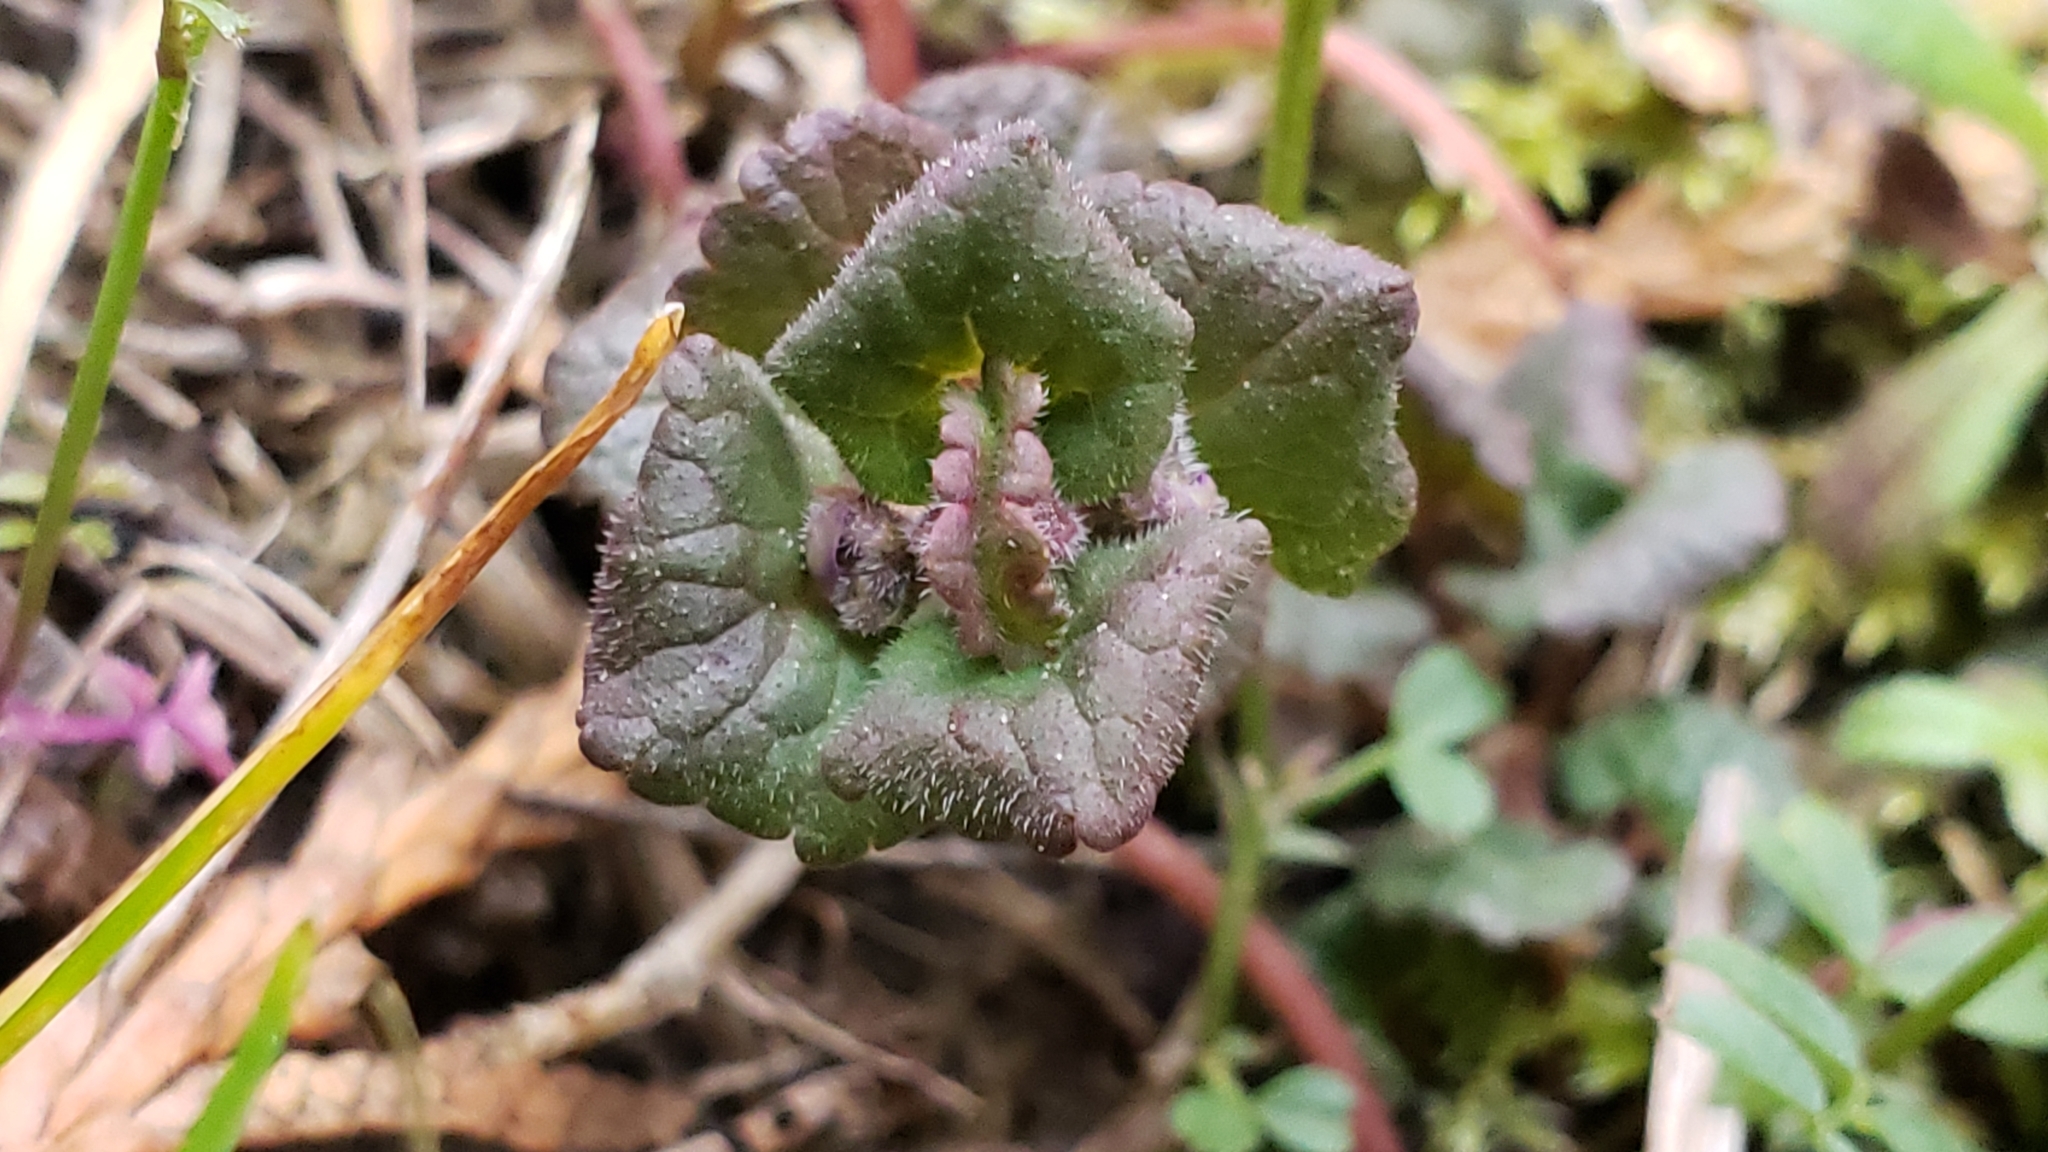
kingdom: Plantae
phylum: Tracheophyta
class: Magnoliopsida
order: Lamiales
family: Lamiaceae
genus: Glechoma
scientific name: Glechoma hederacea
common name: Ground ivy
